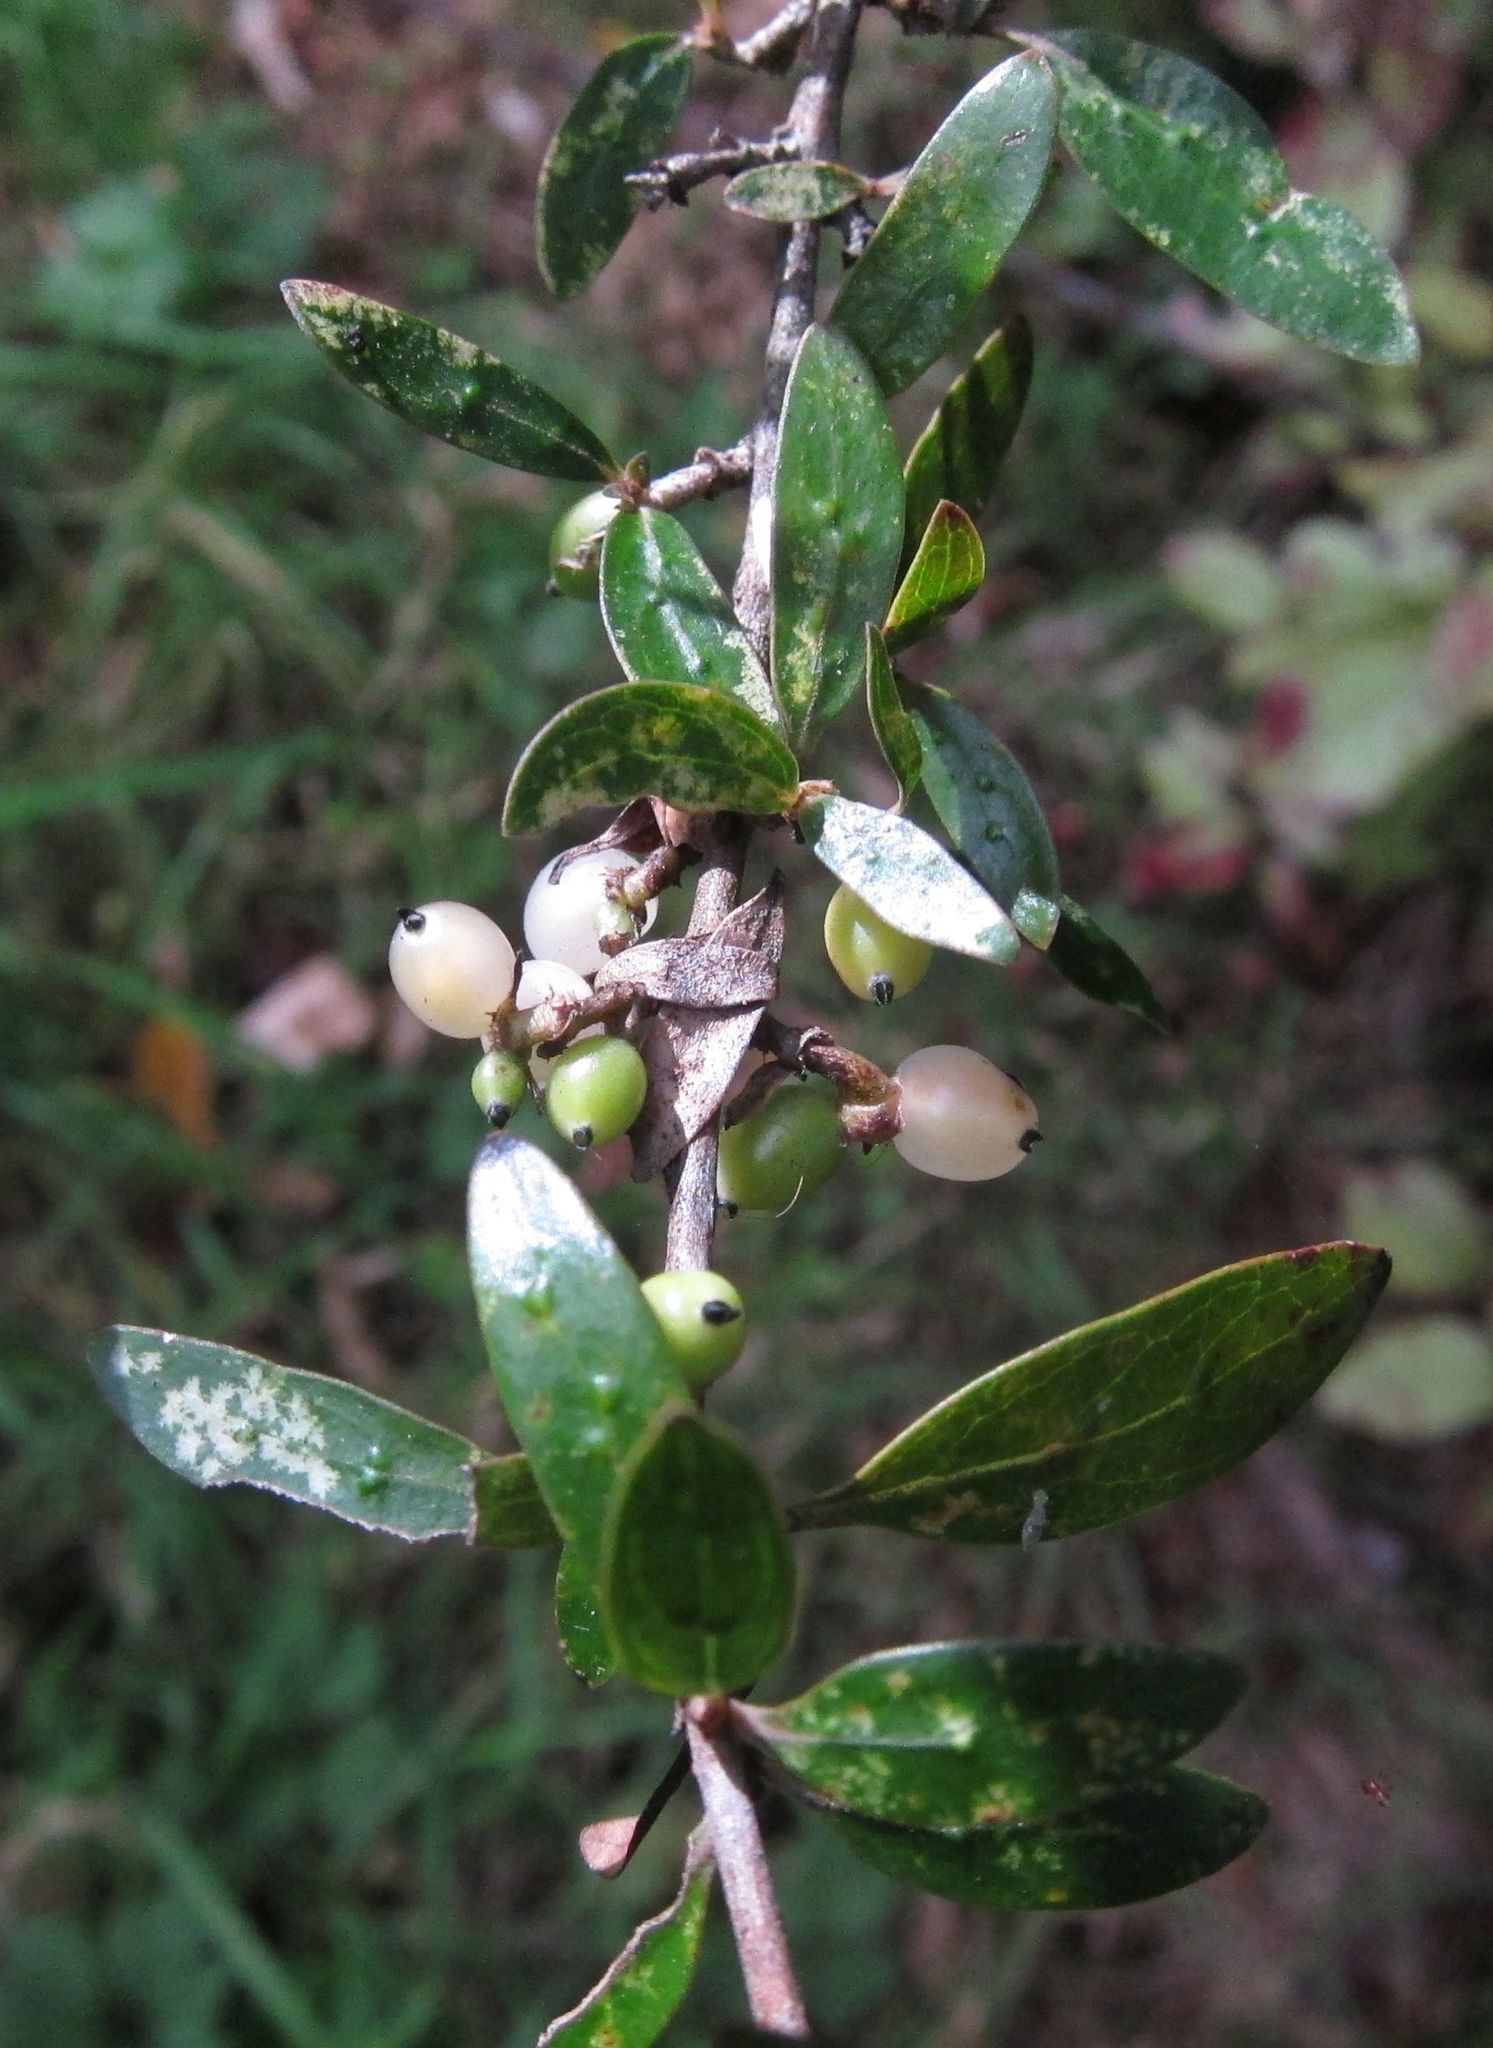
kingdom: Plantae
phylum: Tracheophyta
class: Magnoliopsida
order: Gentianales
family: Rubiaceae
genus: Coprosma
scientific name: Coprosma cunninghamii
